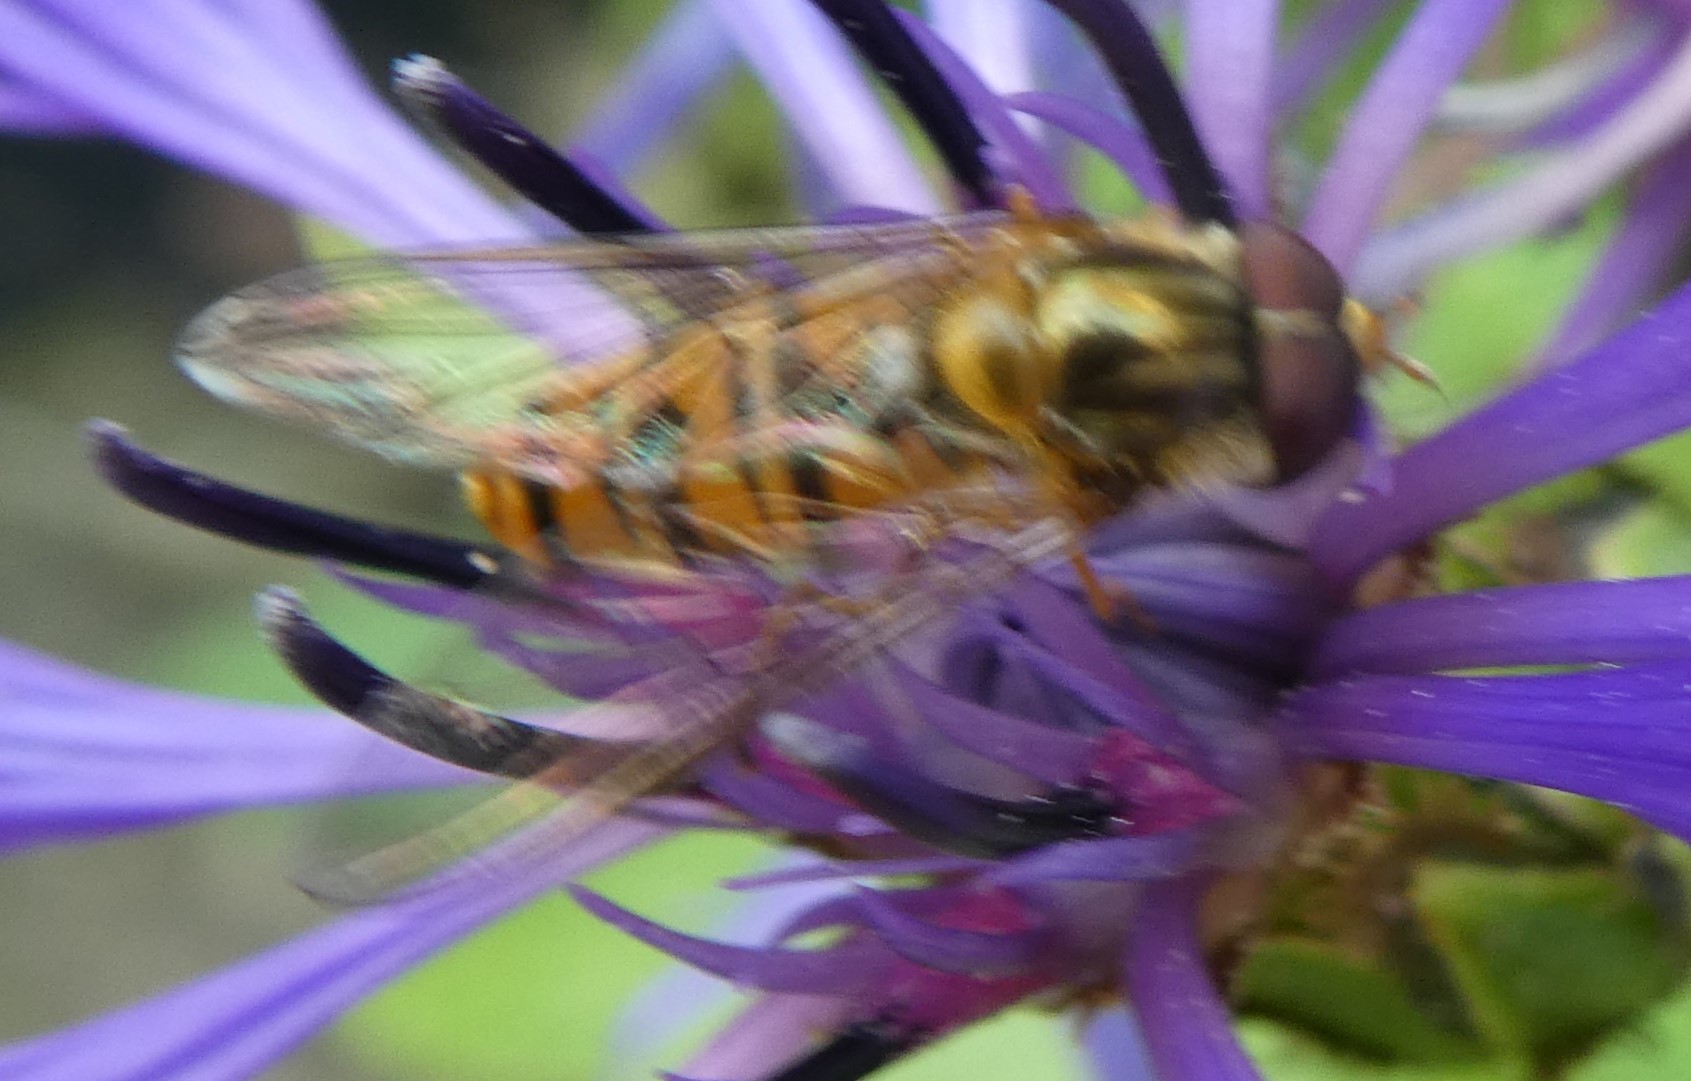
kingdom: Animalia
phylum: Arthropoda
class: Insecta
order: Diptera
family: Syrphidae
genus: Episyrphus
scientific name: Episyrphus balteatus
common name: Marmalade hoverfly
